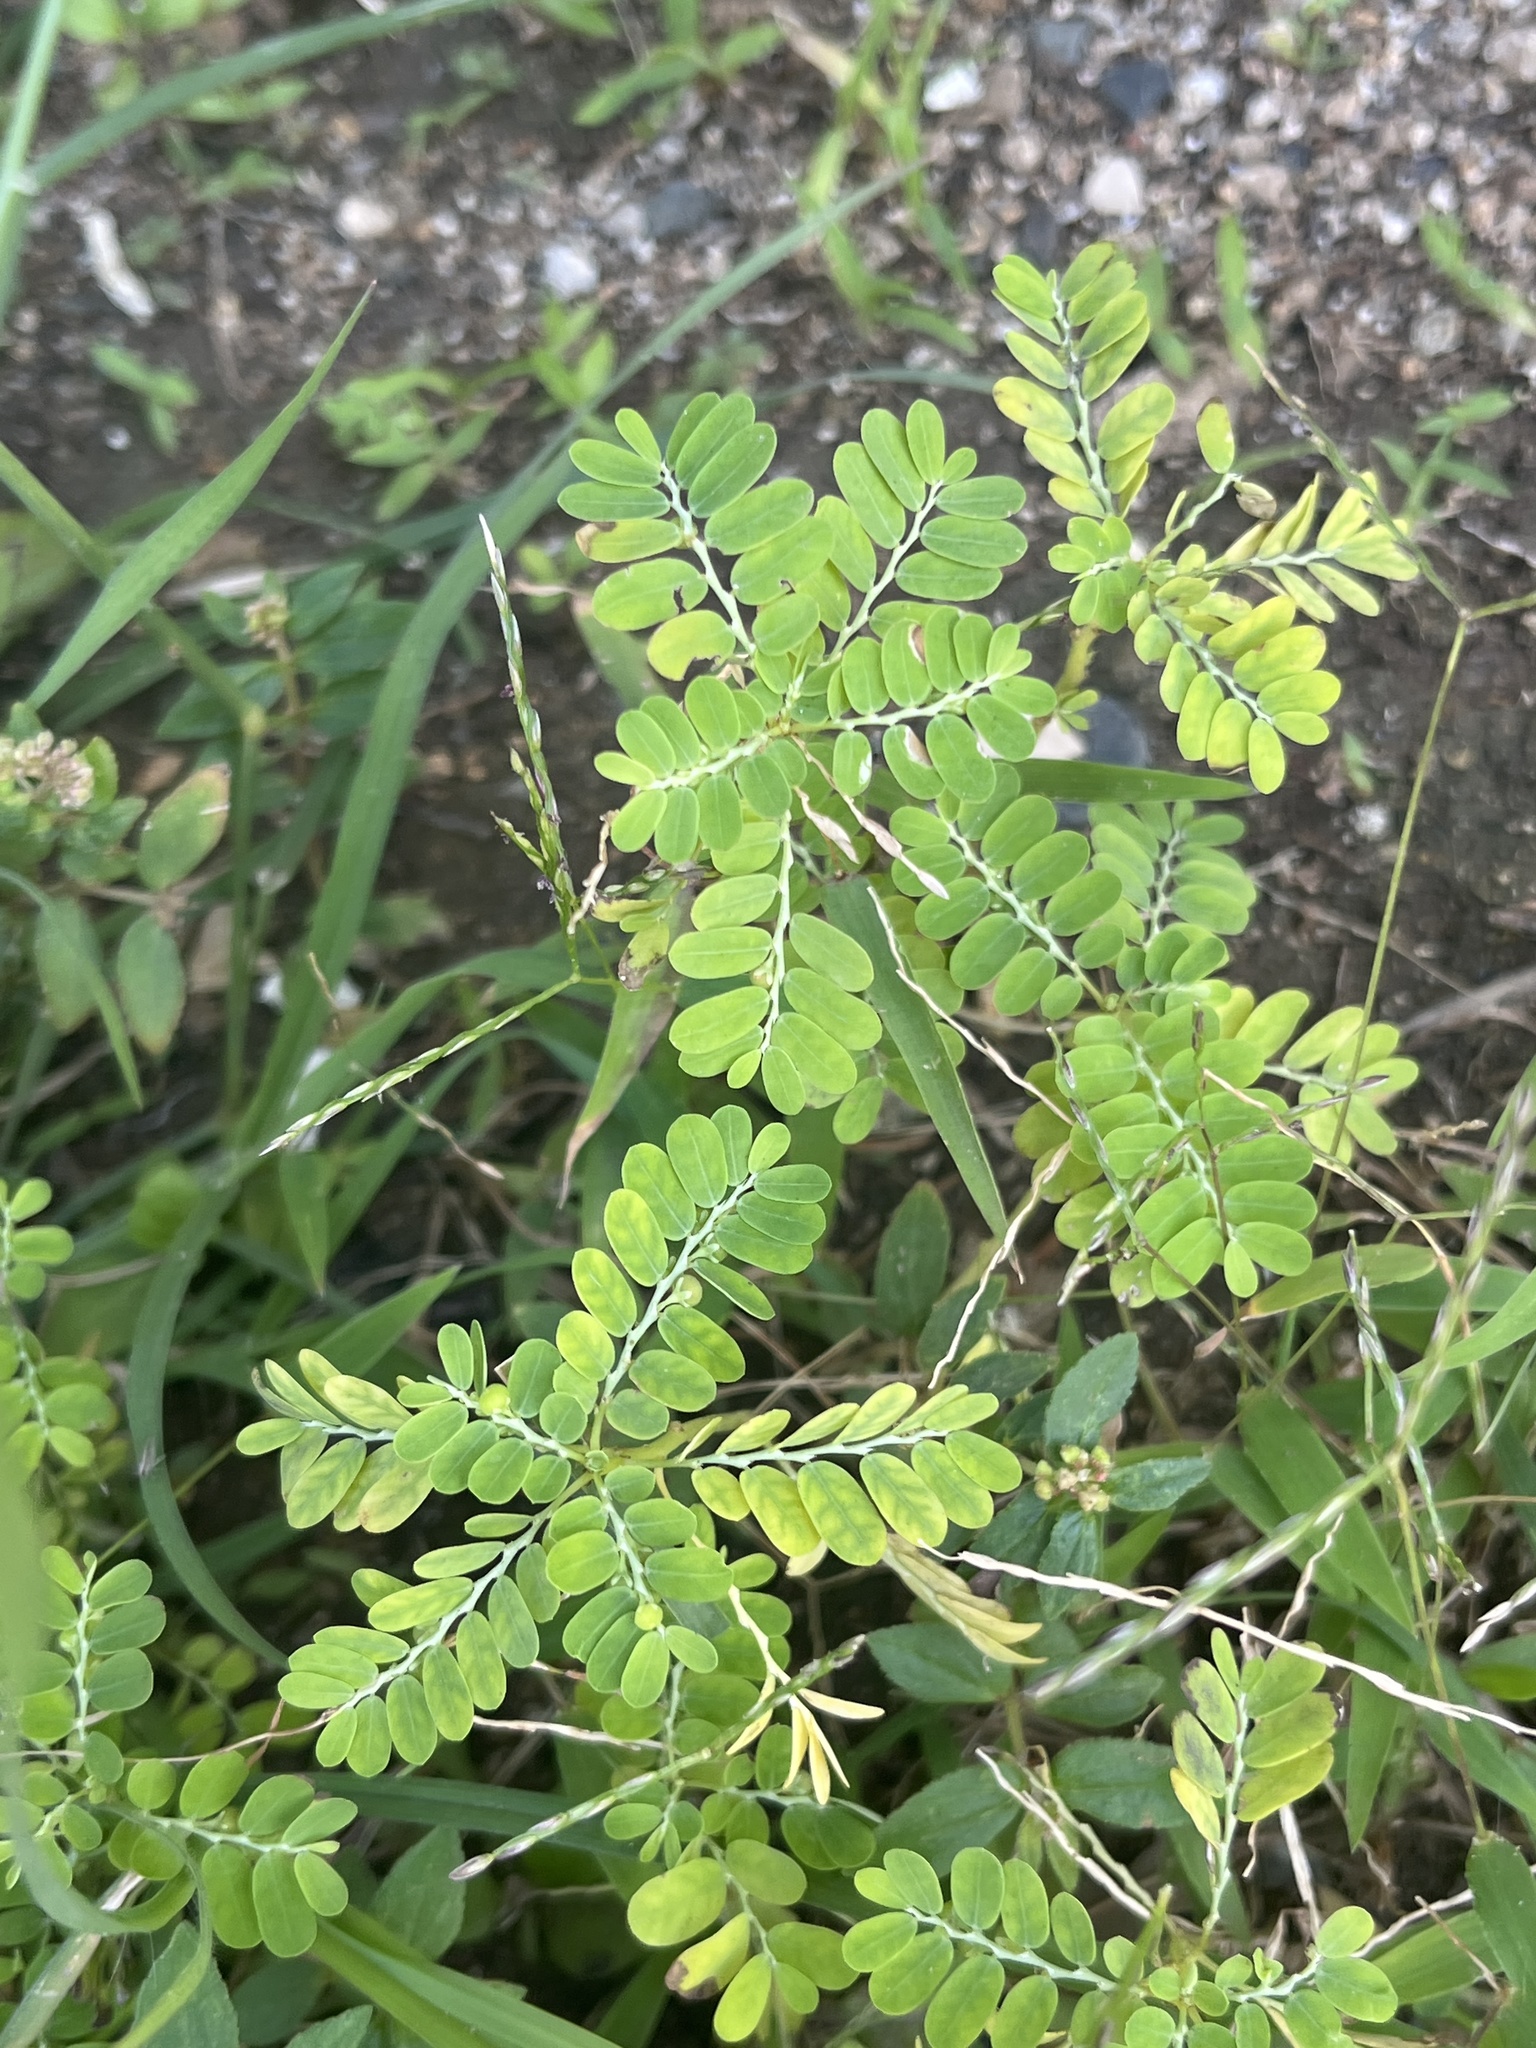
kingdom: Plantae
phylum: Tracheophyta
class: Magnoliopsida
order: Malpighiales
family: Phyllanthaceae
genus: Phyllanthus
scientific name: Phyllanthus amarus
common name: Carry me seed
